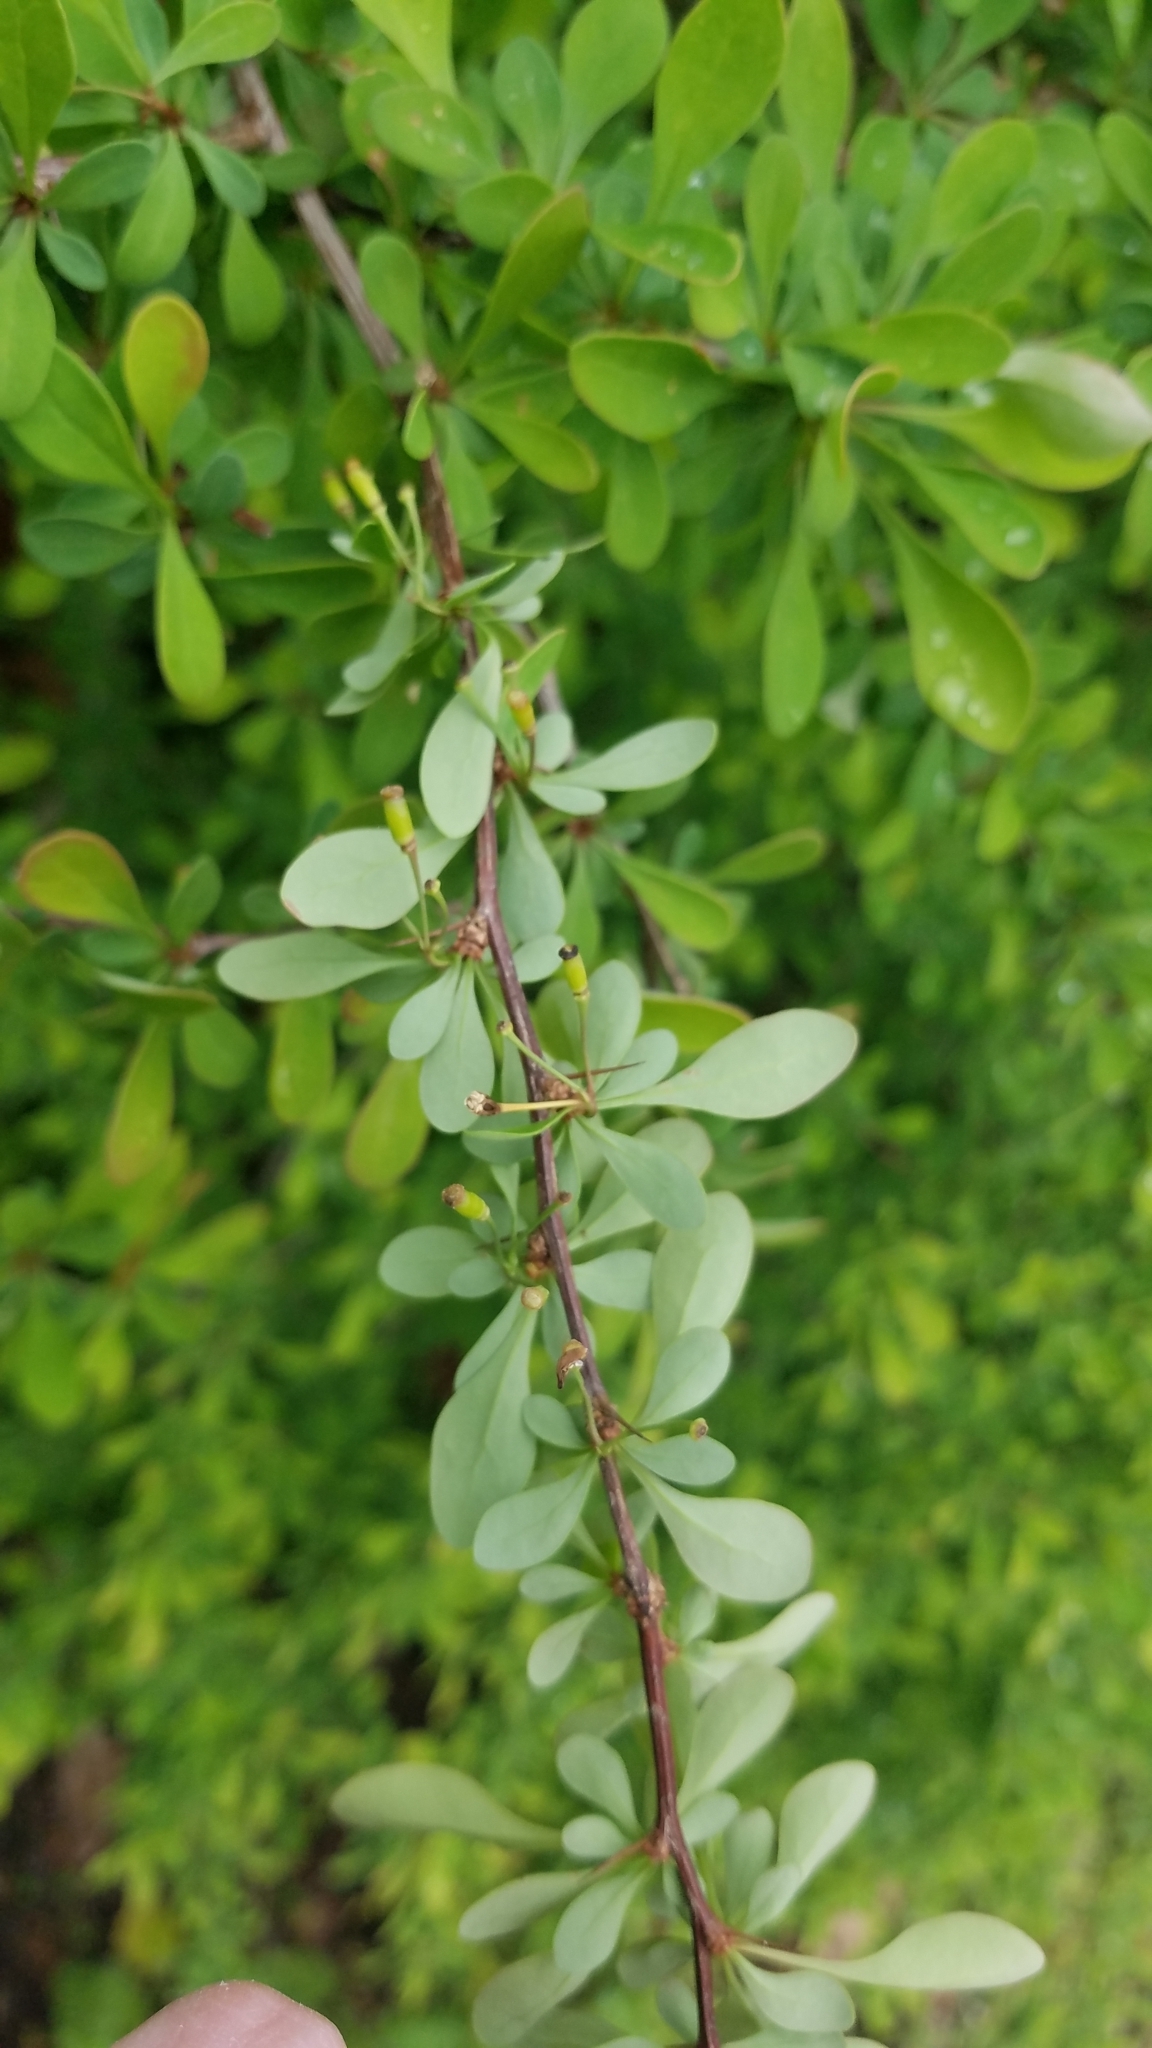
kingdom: Plantae
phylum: Tracheophyta
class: Magnoliopsida
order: Ranunculales
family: Berberidaceae
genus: Berberis
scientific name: Berberis thunbergii
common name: Japanese barberry
